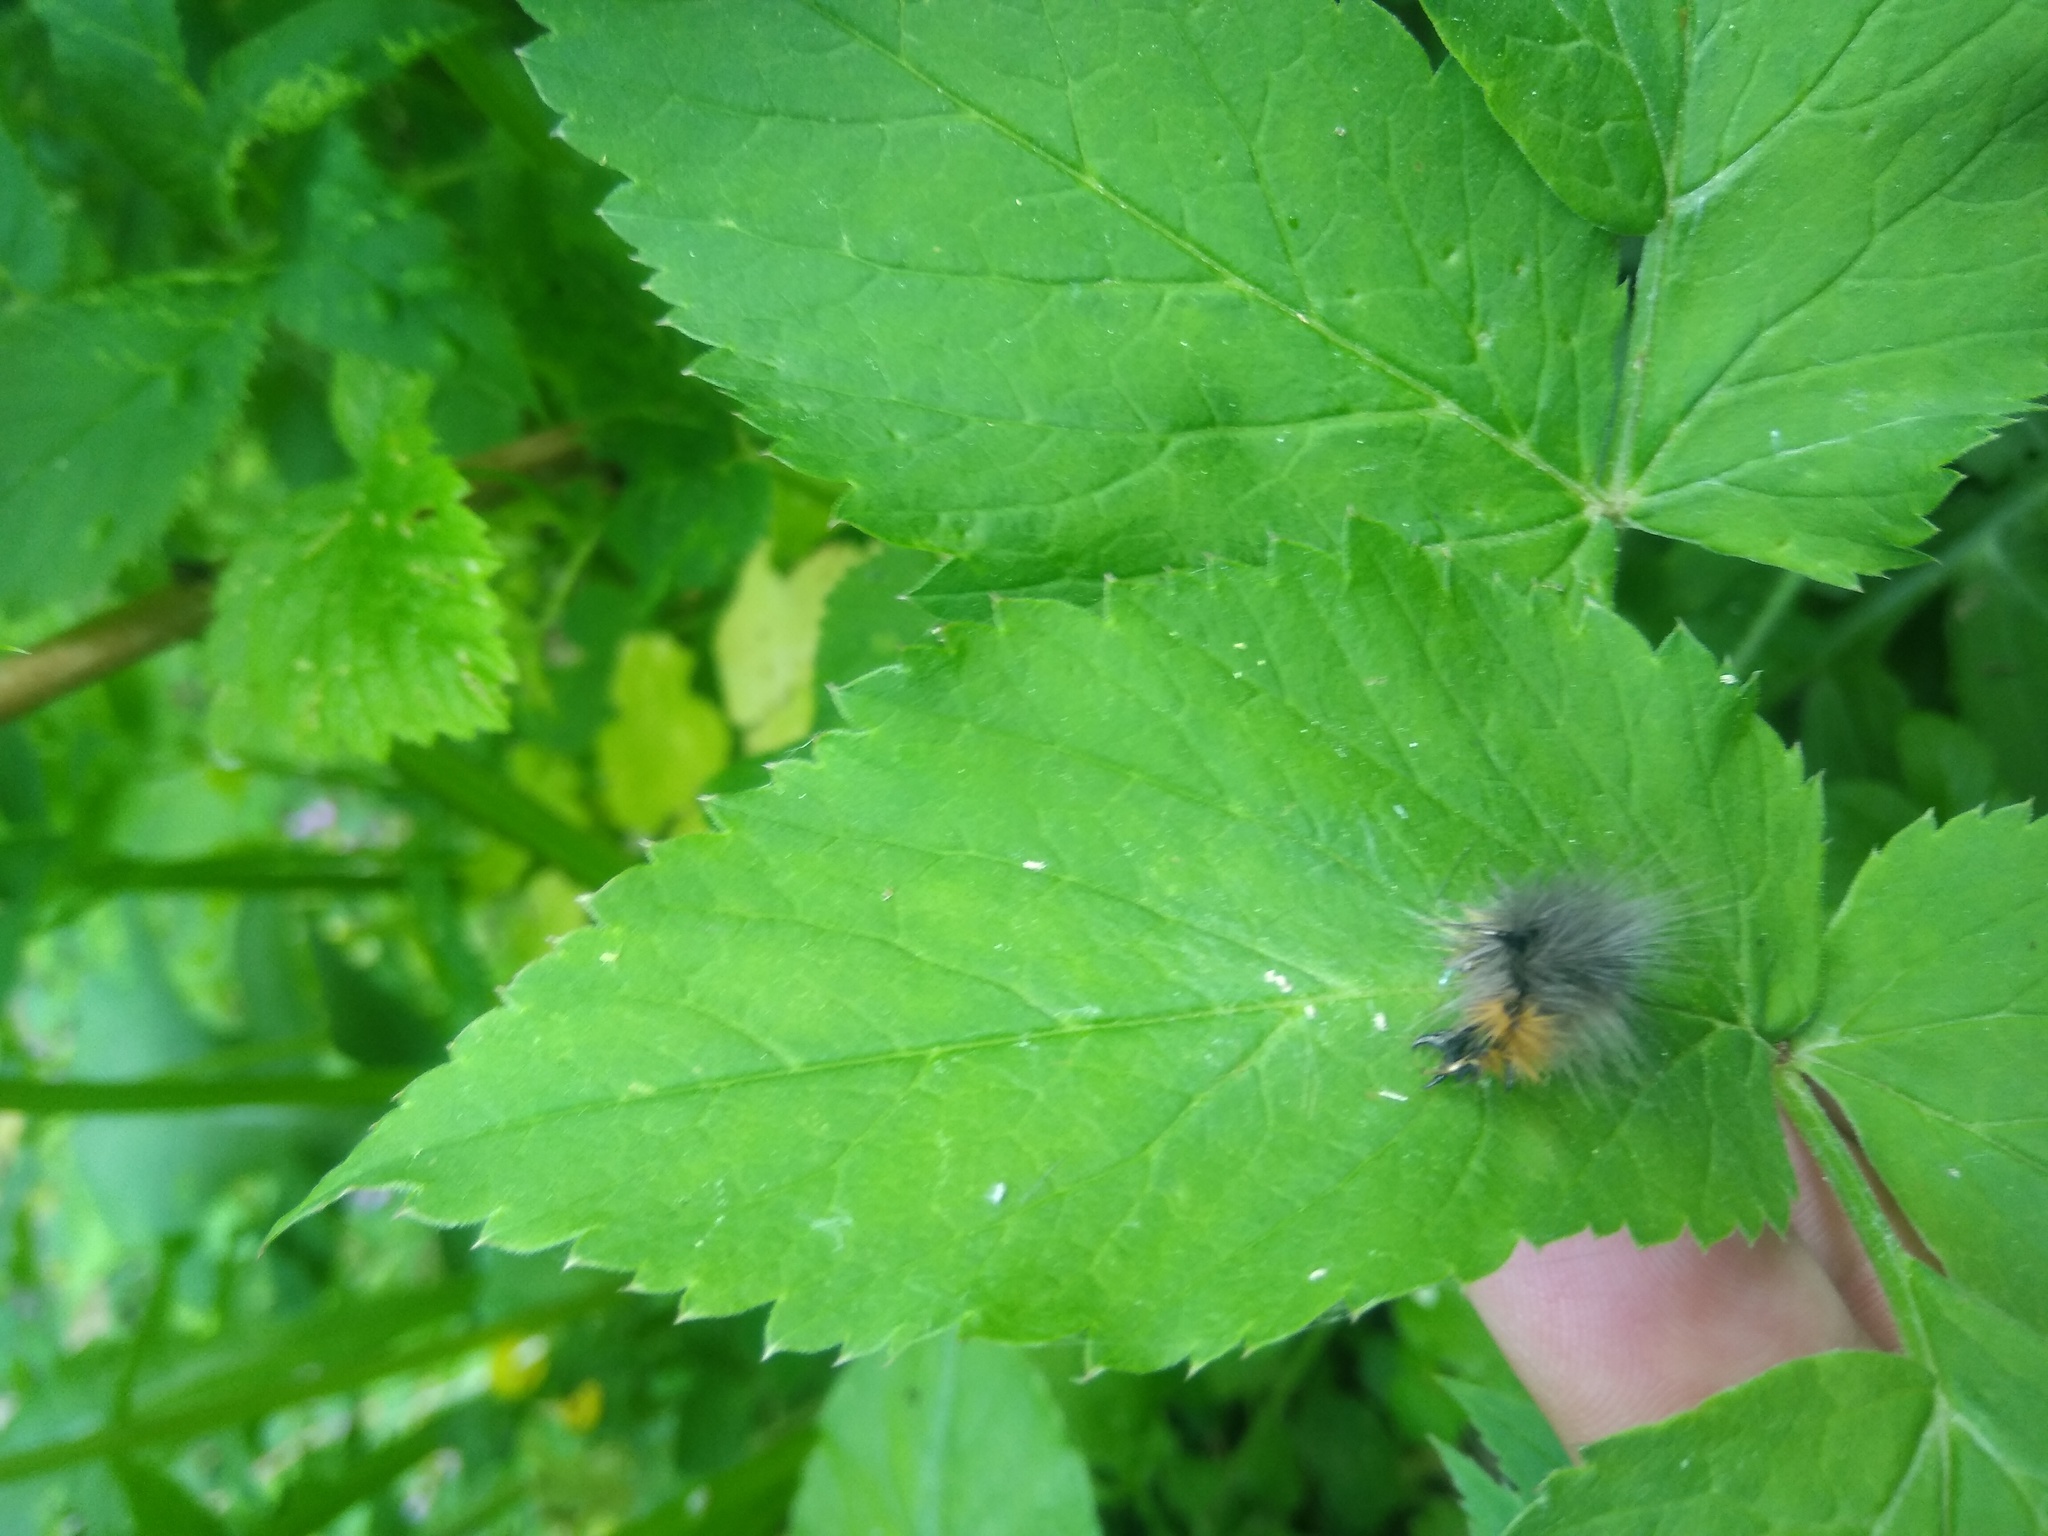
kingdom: Animalia
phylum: Arthropoda
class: Insecta
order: Lepidoptera
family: Erebidae
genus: Arctia
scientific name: Arctia caja
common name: Garden tiger
